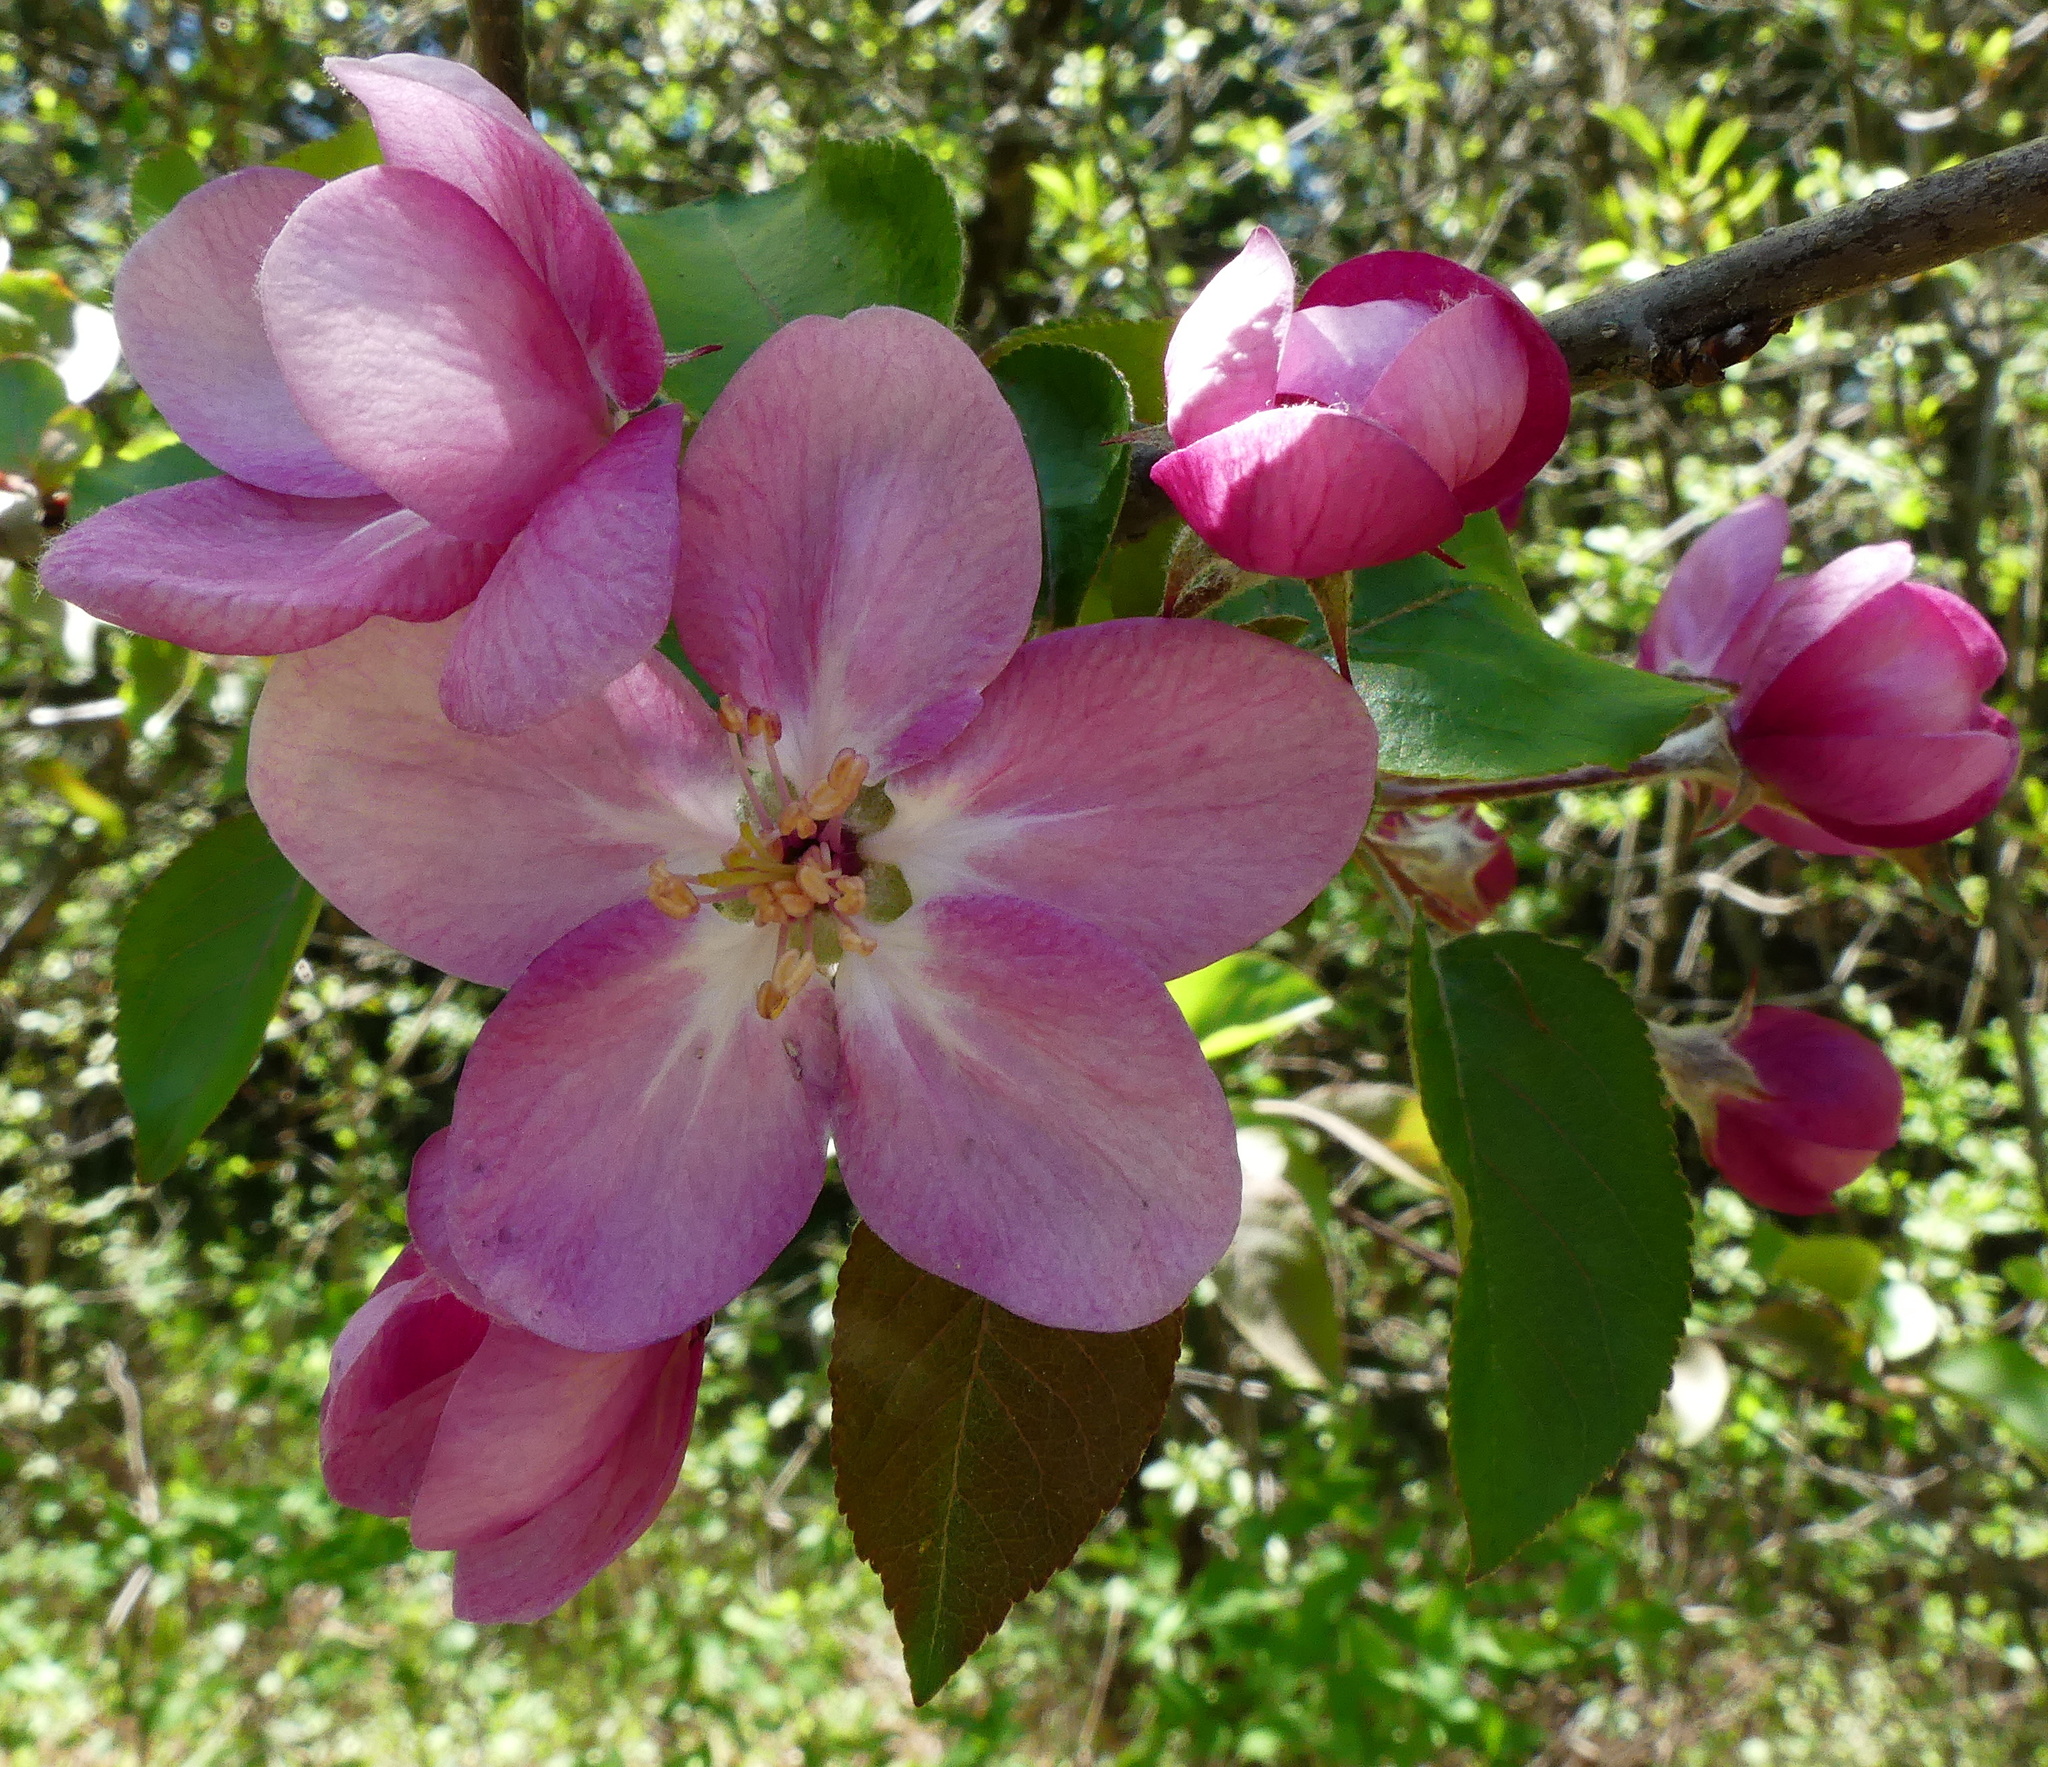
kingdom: Plantae
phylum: Tracheophyta
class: Magnoliopsida
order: Rosales
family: Rosaceae
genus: Malus
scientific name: Malus domestica
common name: Apple
